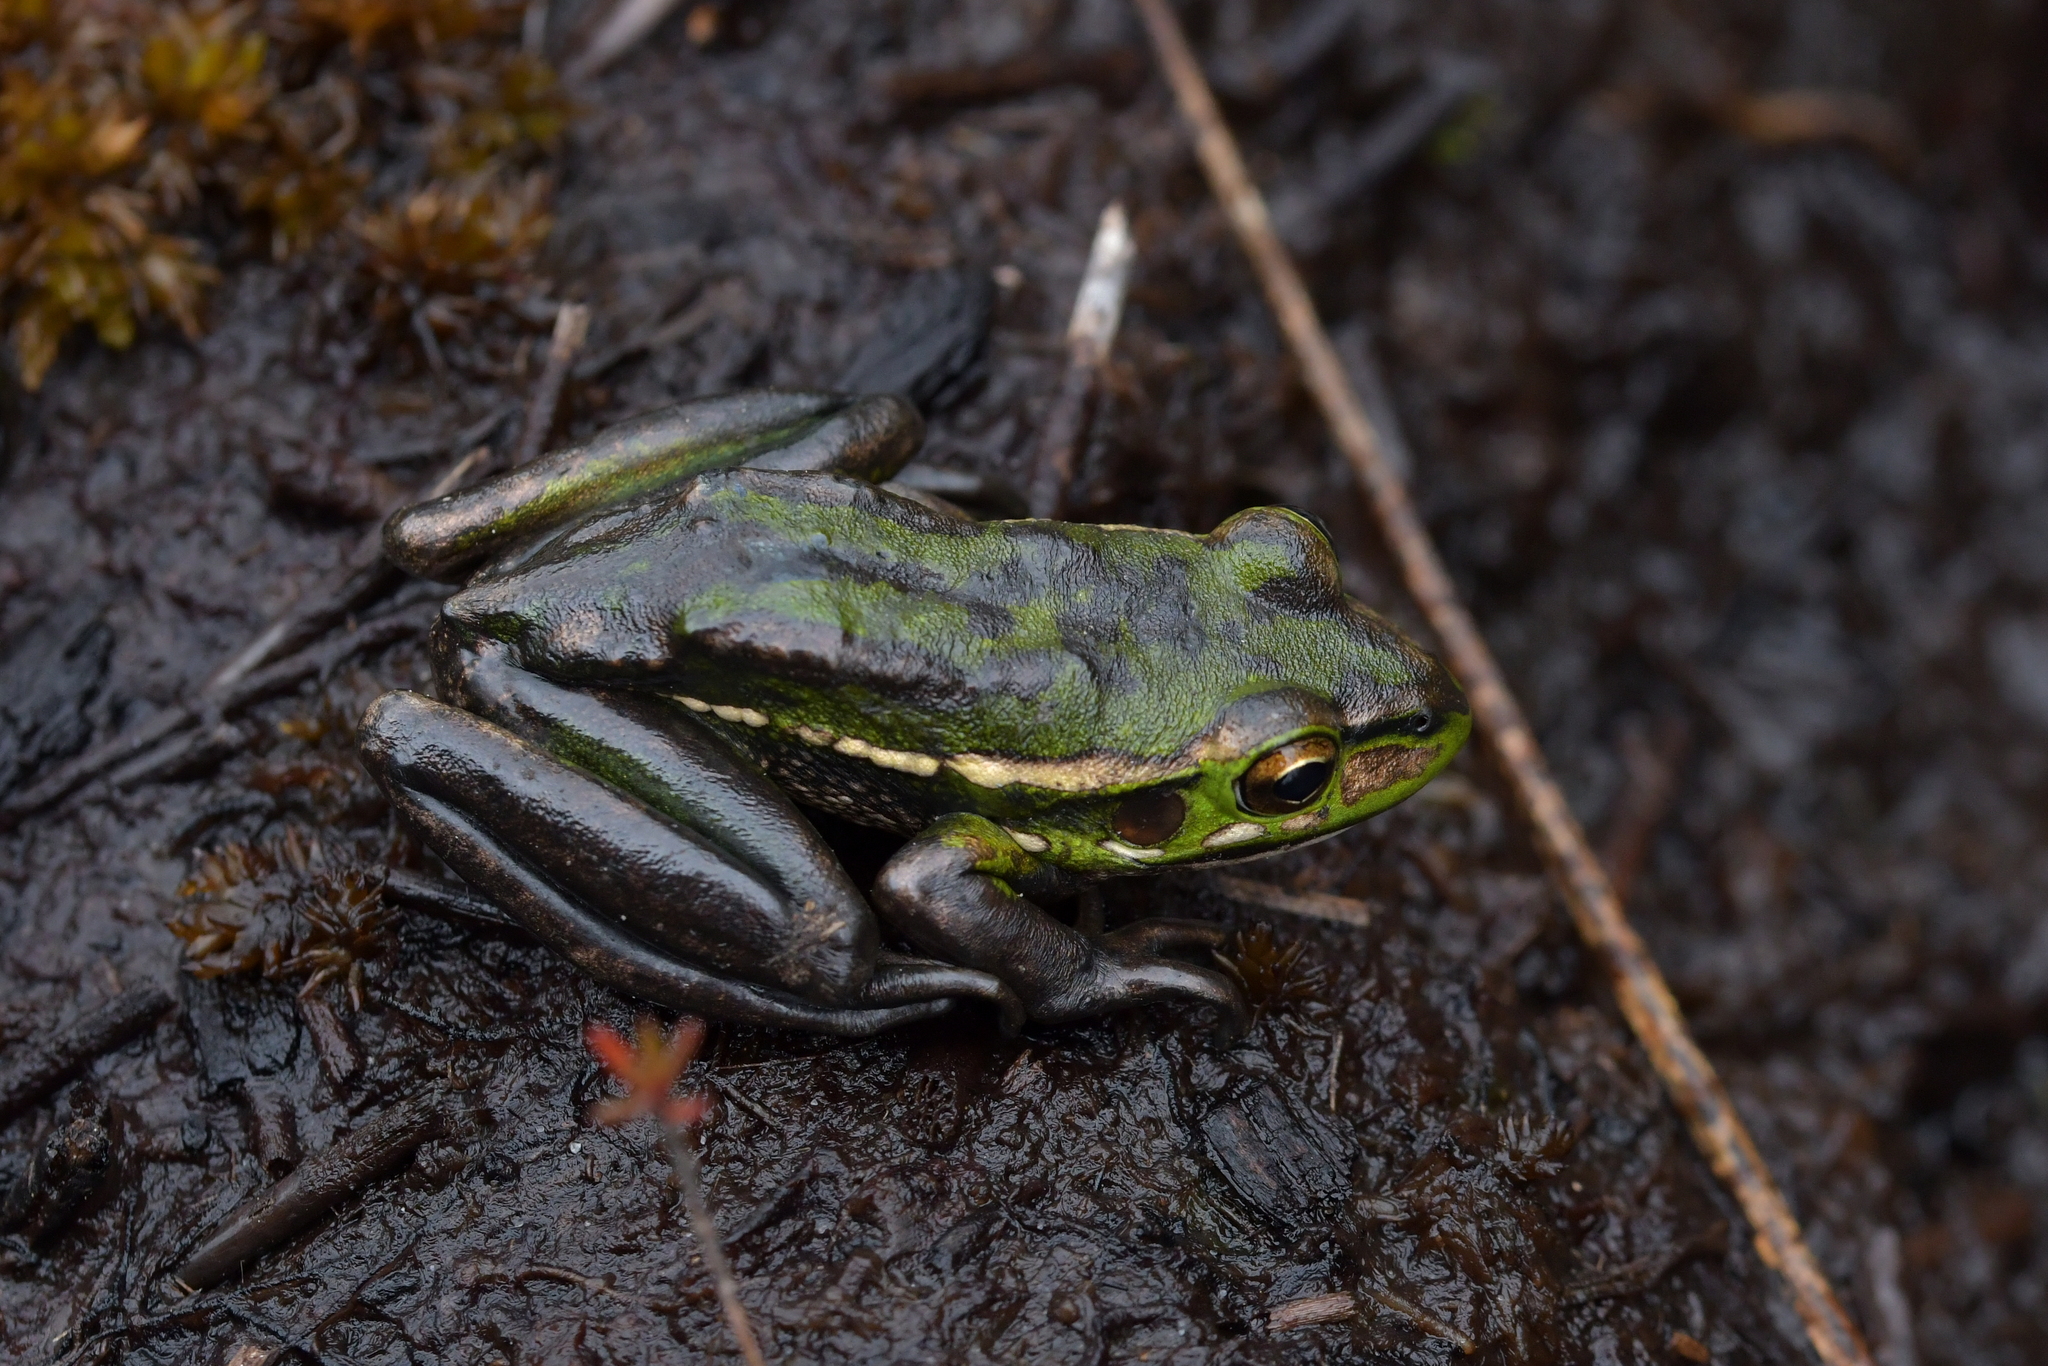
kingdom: Animalia
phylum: Chordata
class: Amphibia
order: Anura
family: Pelodryadidae
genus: Ranoidea
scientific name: Ranoidea aurea
